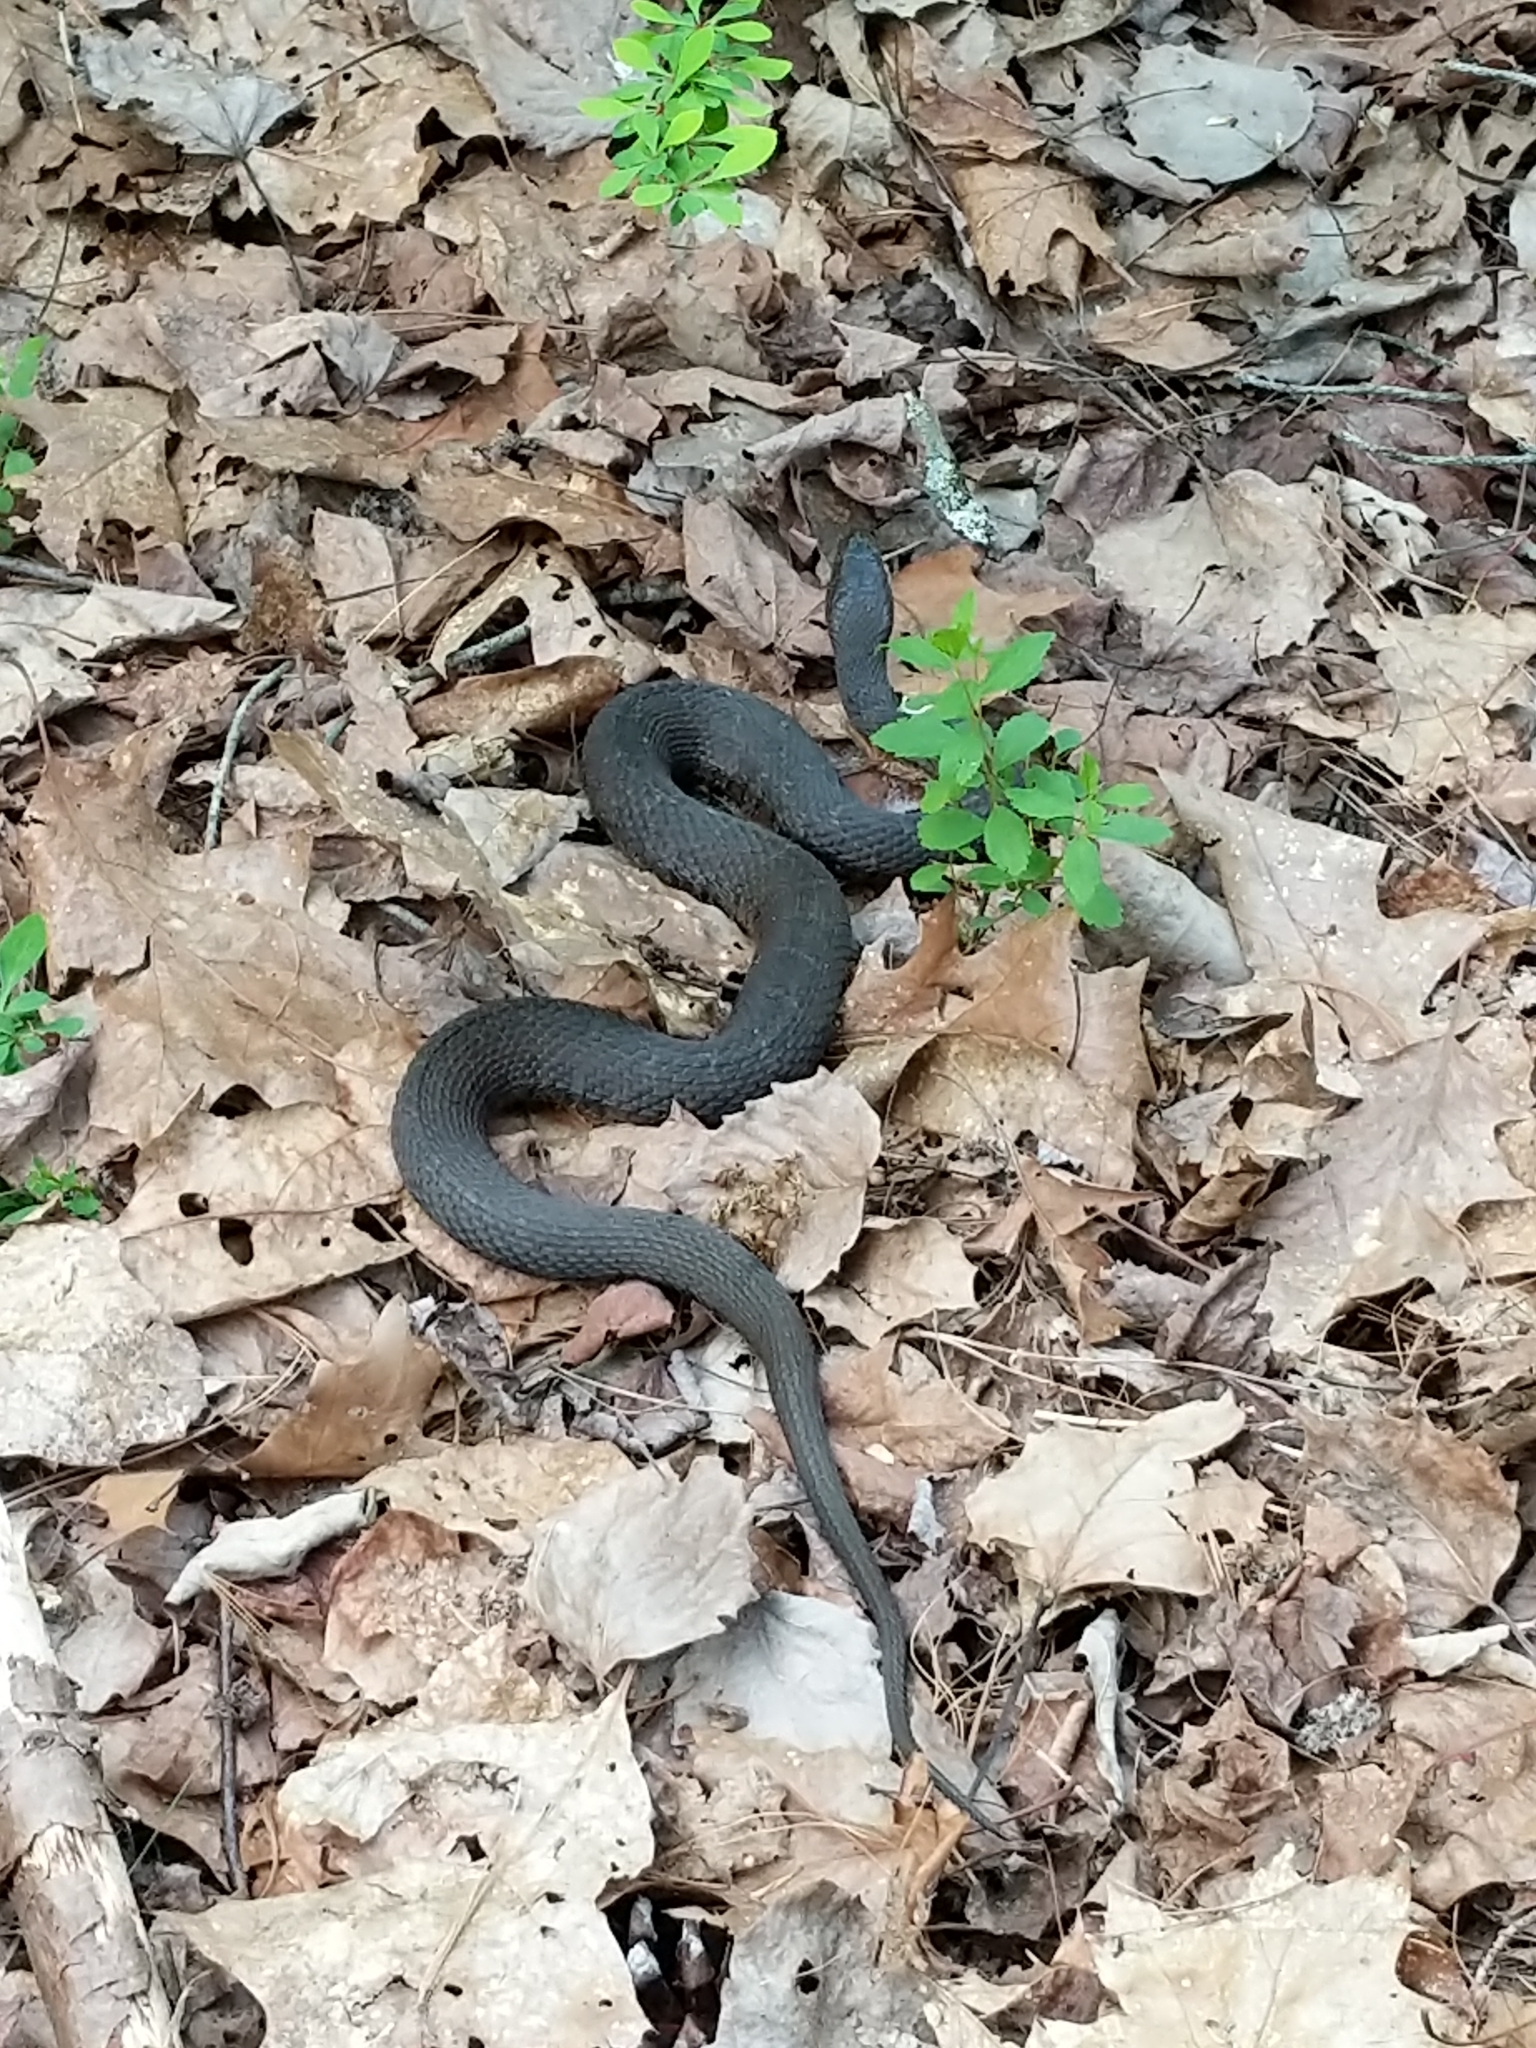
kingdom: Animalia
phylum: Chordata
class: Squamata
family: Colubridae
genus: Nerodia
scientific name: Nerodia sipedon
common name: Northern water snake
